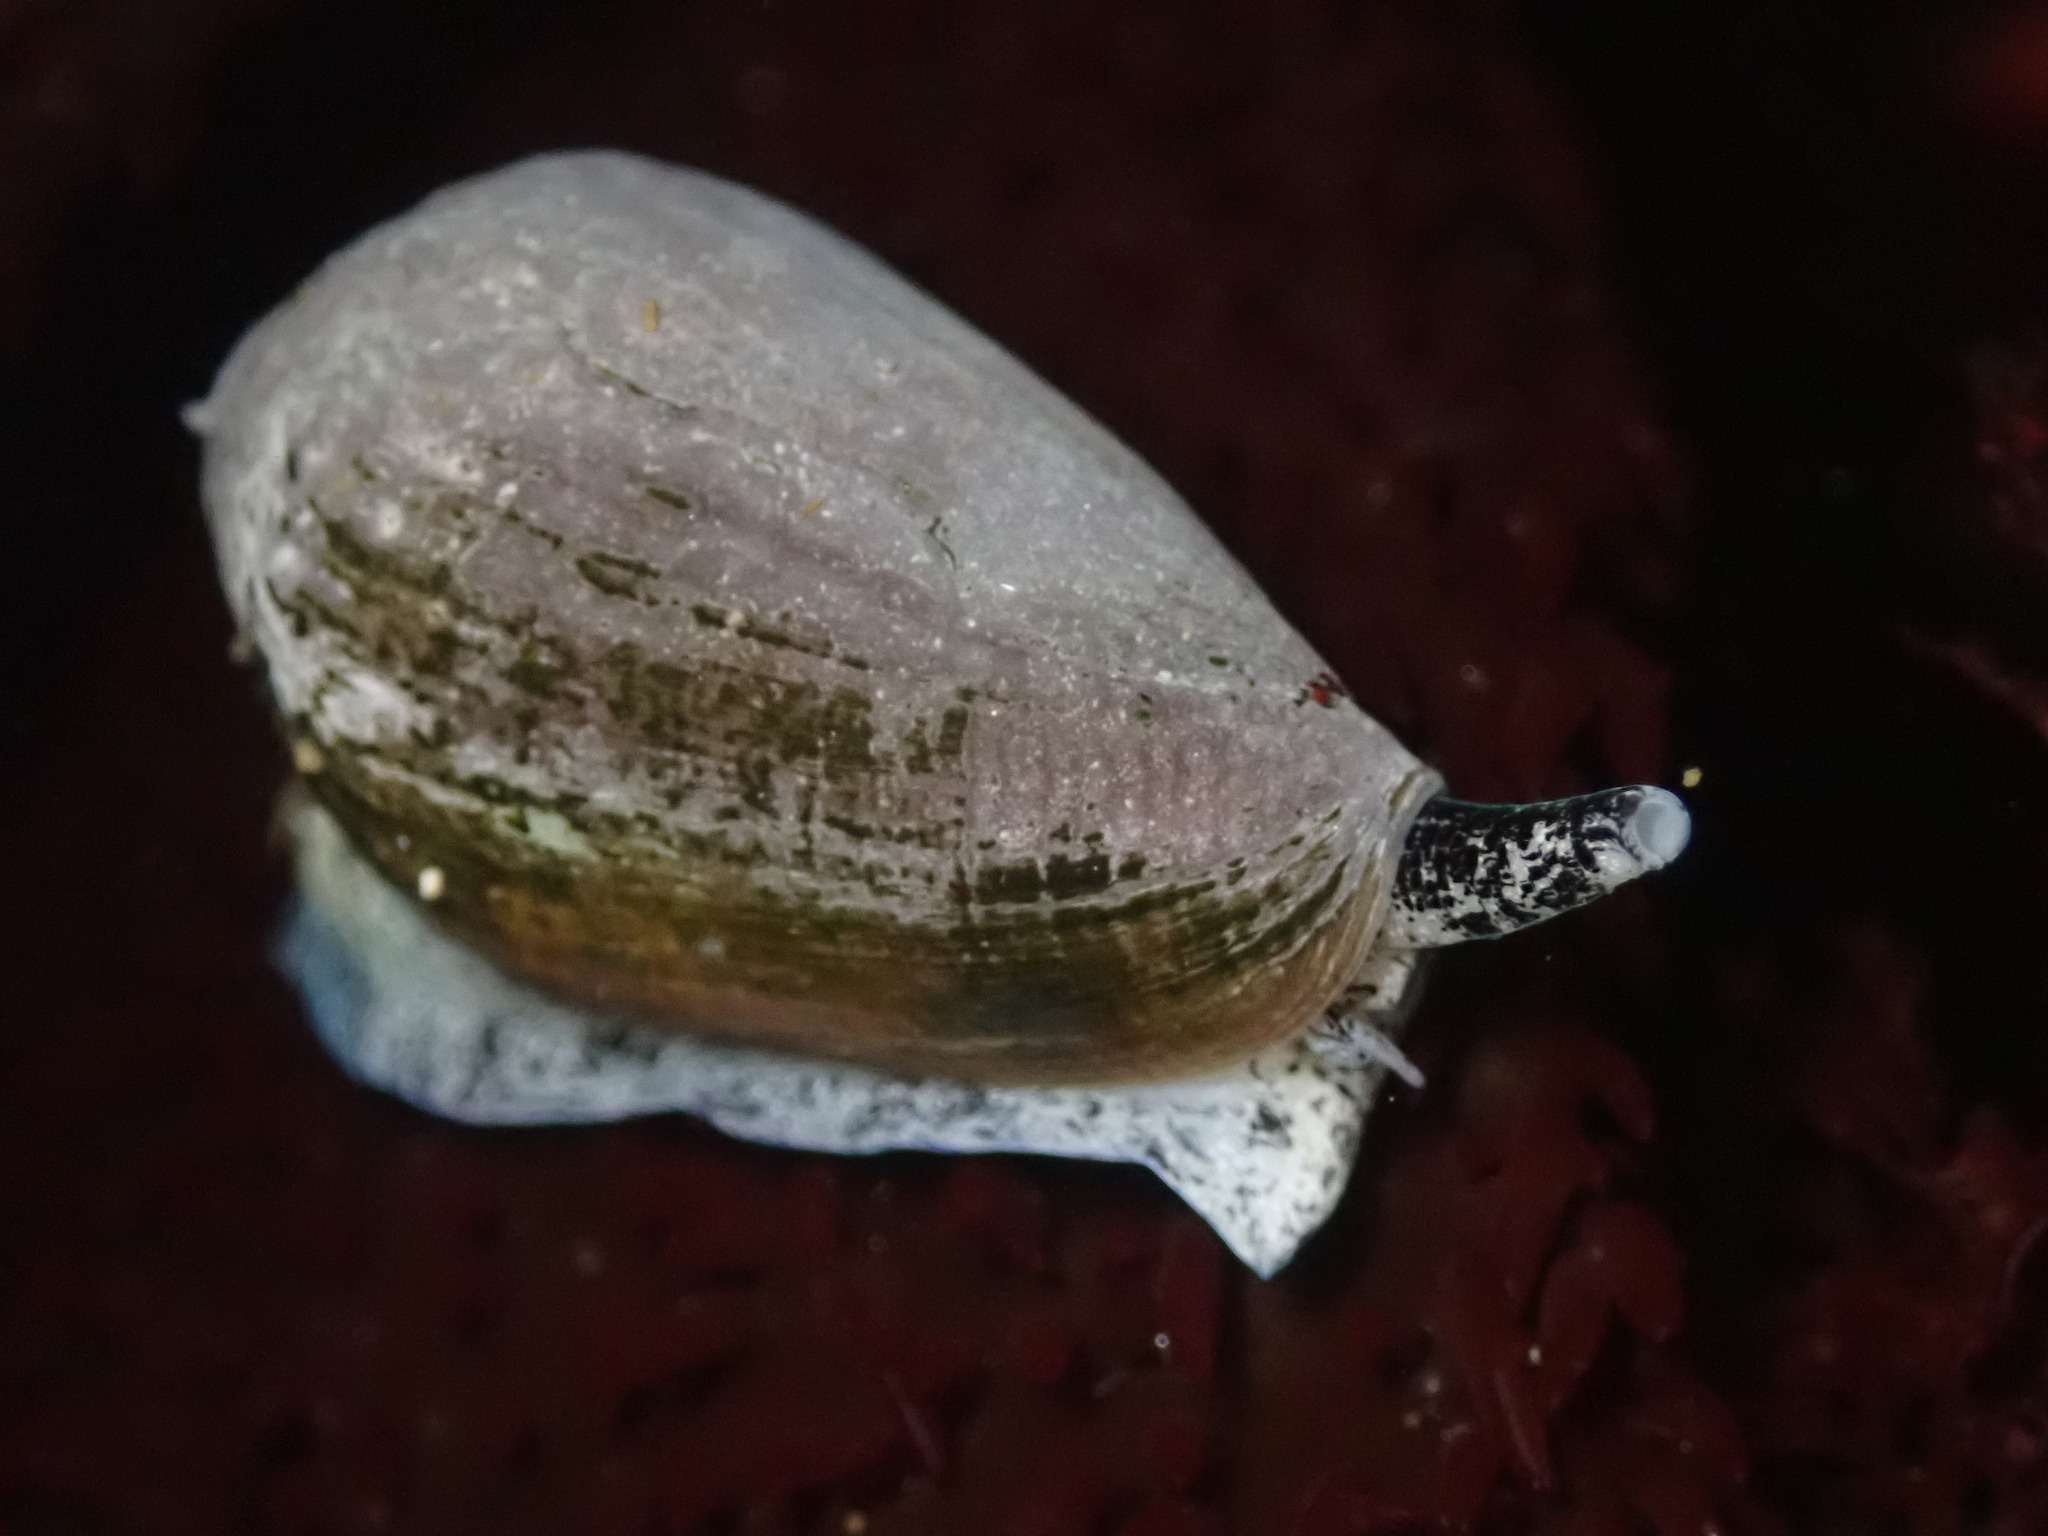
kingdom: Animalia
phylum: Mollusca
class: Gastropoda
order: Neogastropoda
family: Conidae
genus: Californiconus
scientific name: Californiconus californicus
